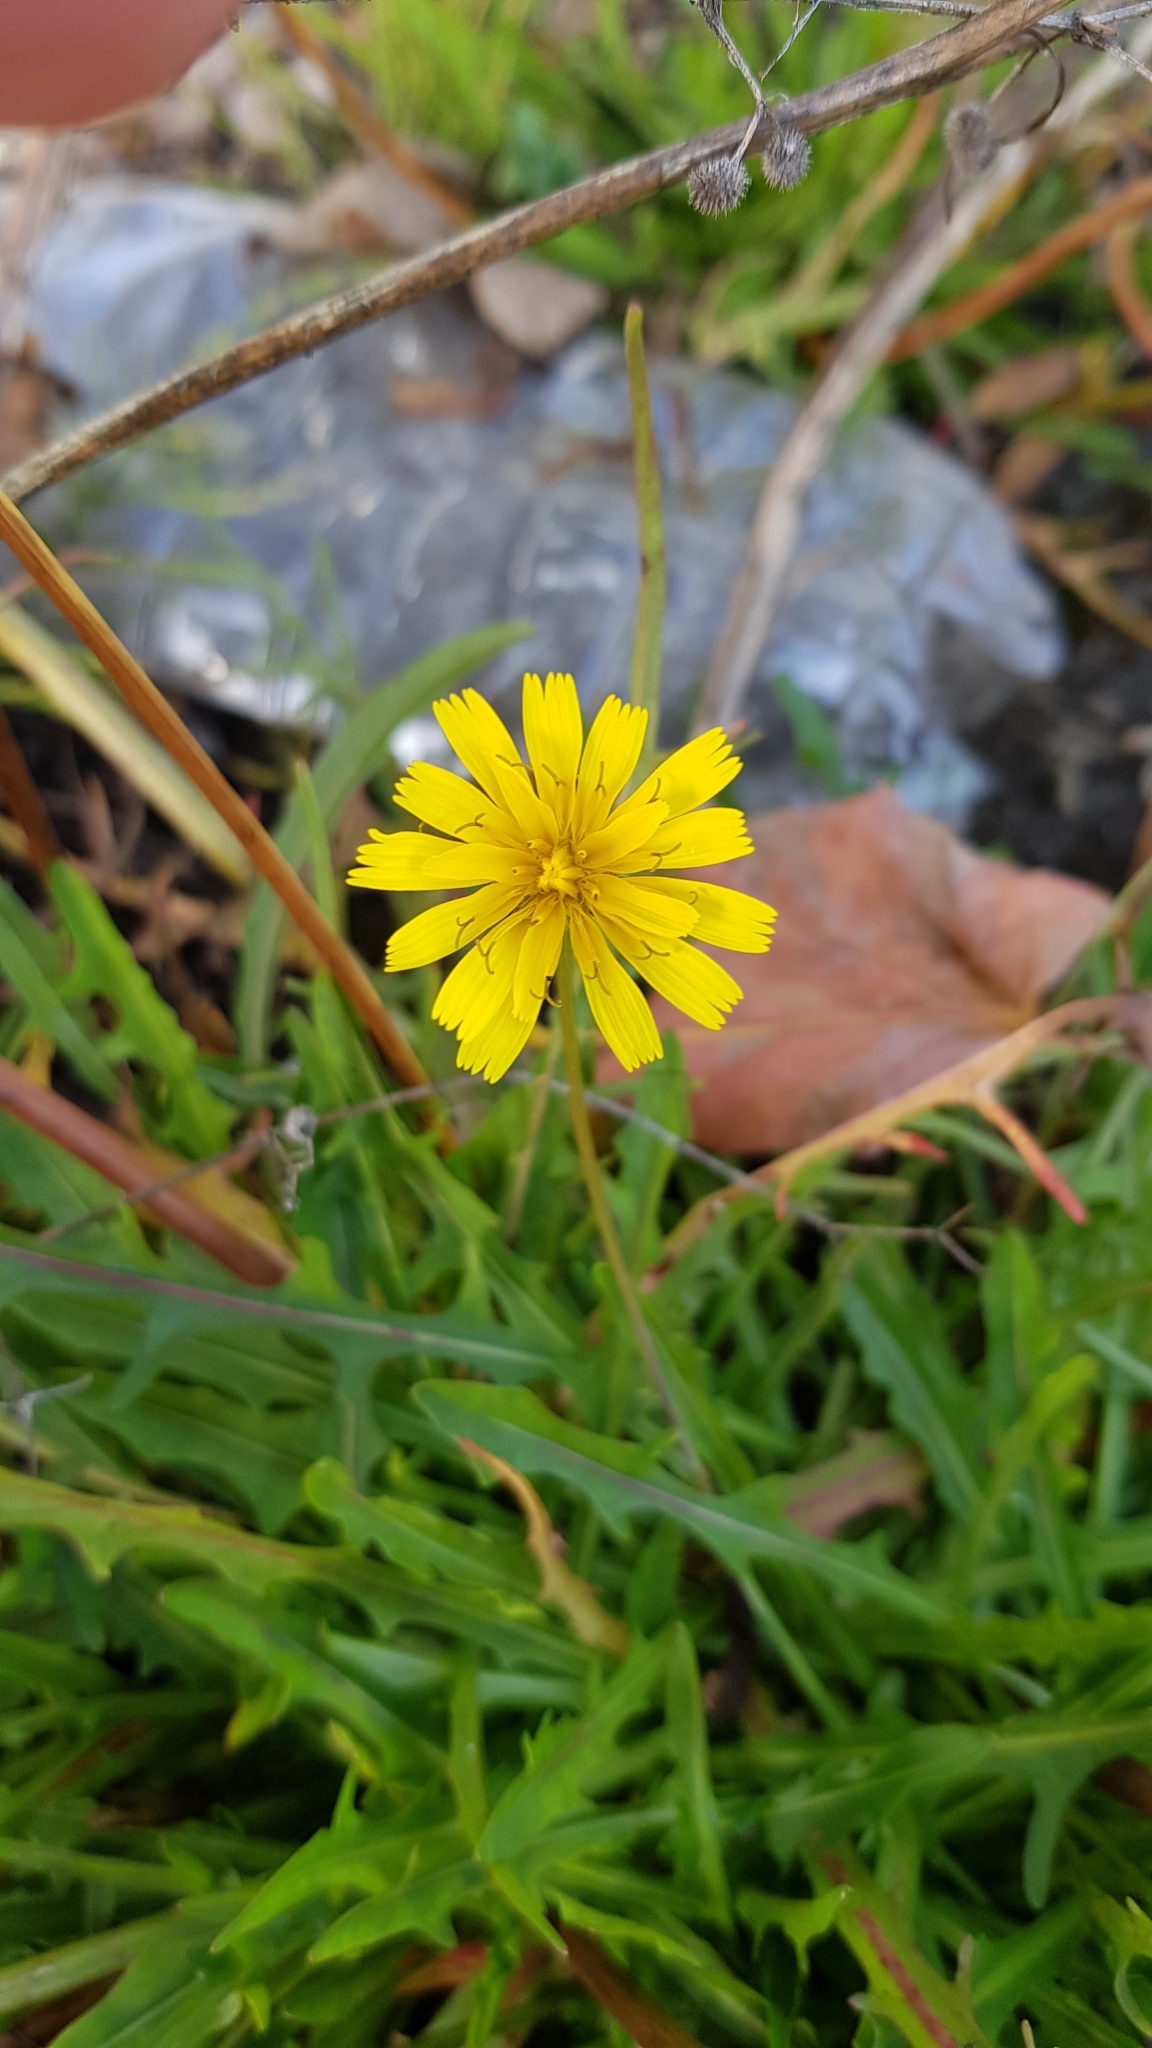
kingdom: Plantae
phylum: Tracheophyta
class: Magnoliopsida
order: Asterales
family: Asteraceae
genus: Scorzoneroides
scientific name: Scorzoneroides autumnalis
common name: Autumn hawkbit
